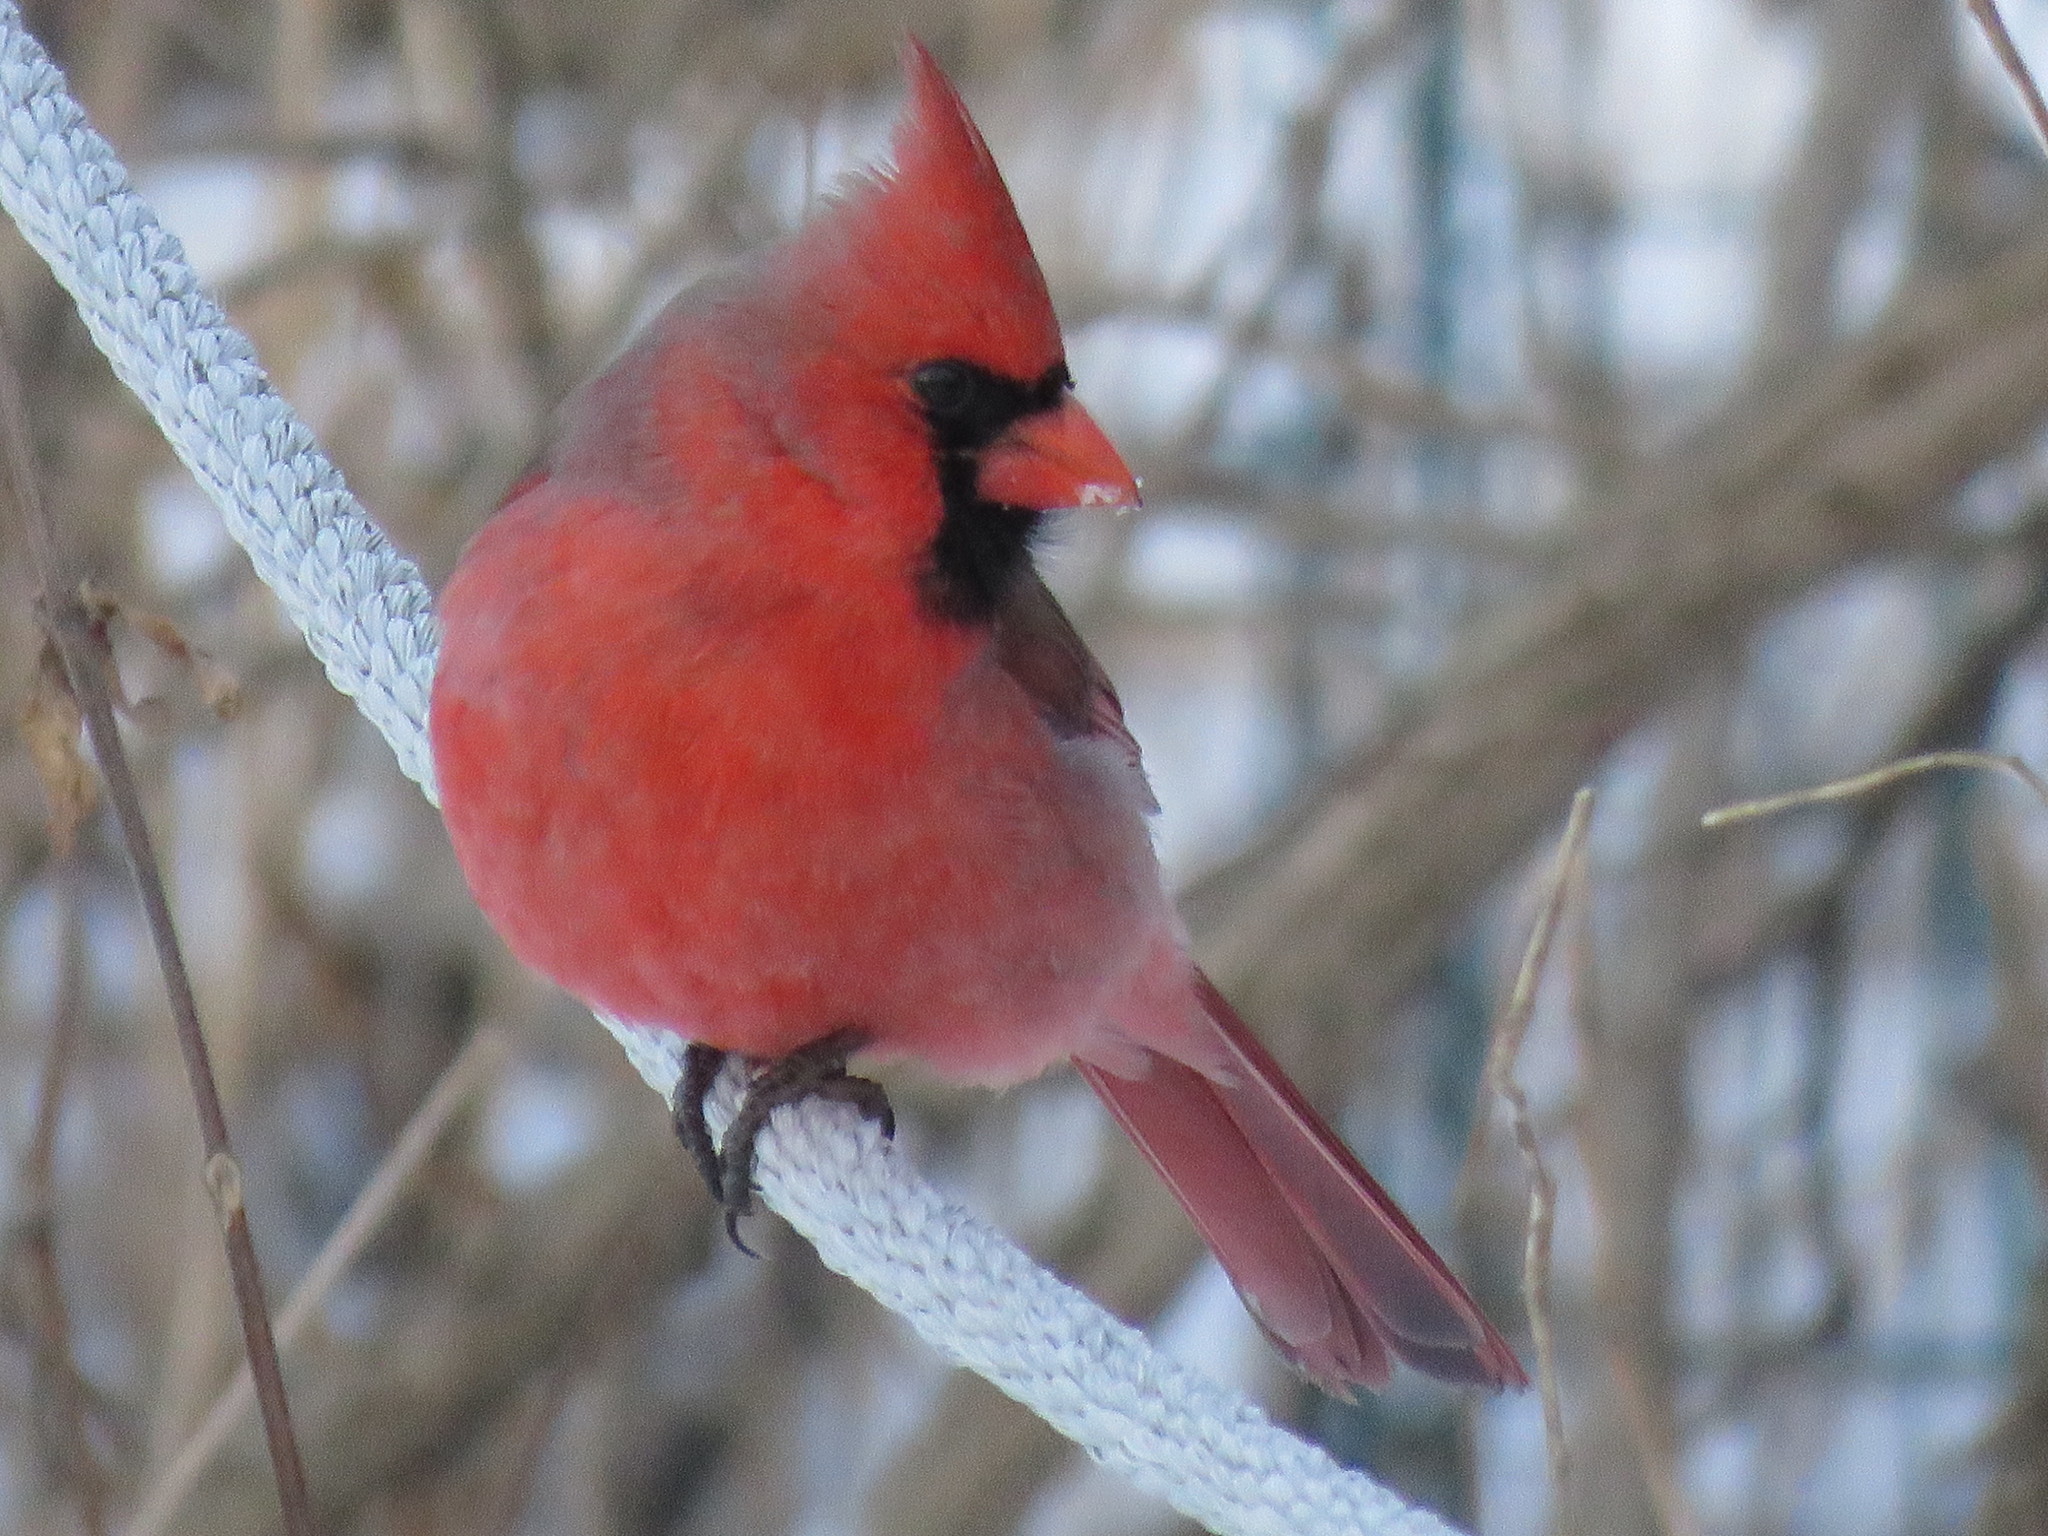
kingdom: Animalia
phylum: Chordata
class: Aves
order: Passeriformes
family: Cardinalidae
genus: Cardinalis
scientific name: Cardinalis cardinalis
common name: Northern cardinal
